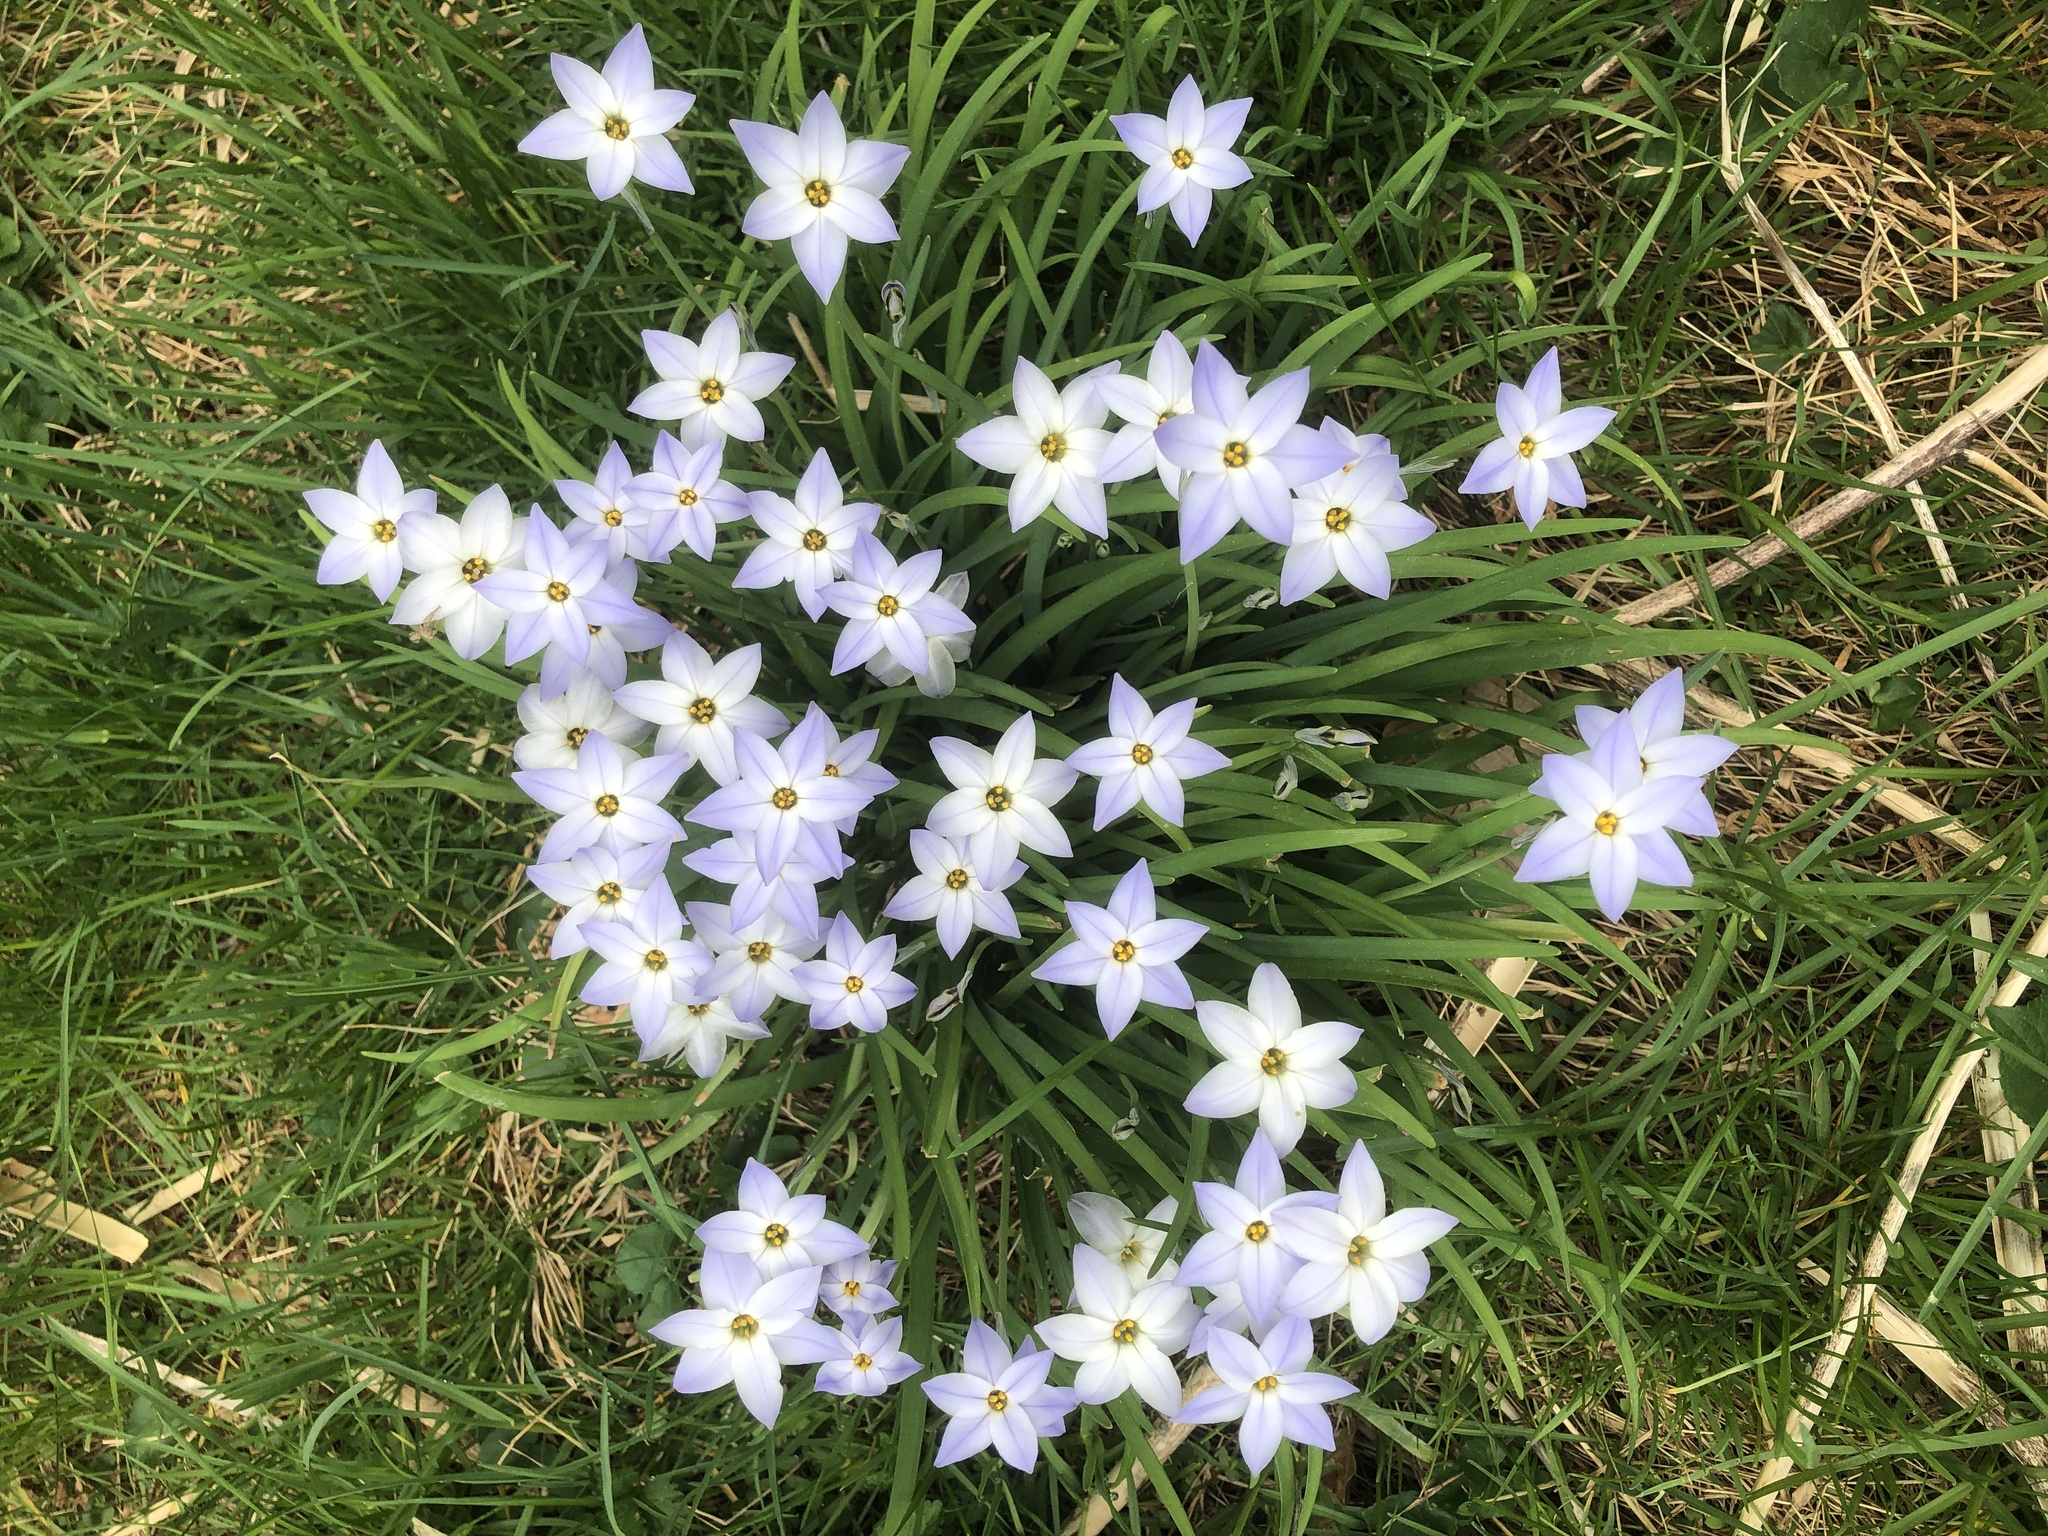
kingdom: Plantae
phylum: Tracheophyta
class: Liliopsida
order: Asparagales
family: Amaryllidaceae
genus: Ipheion
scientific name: Ipheion uniflorum
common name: Spring starflower
